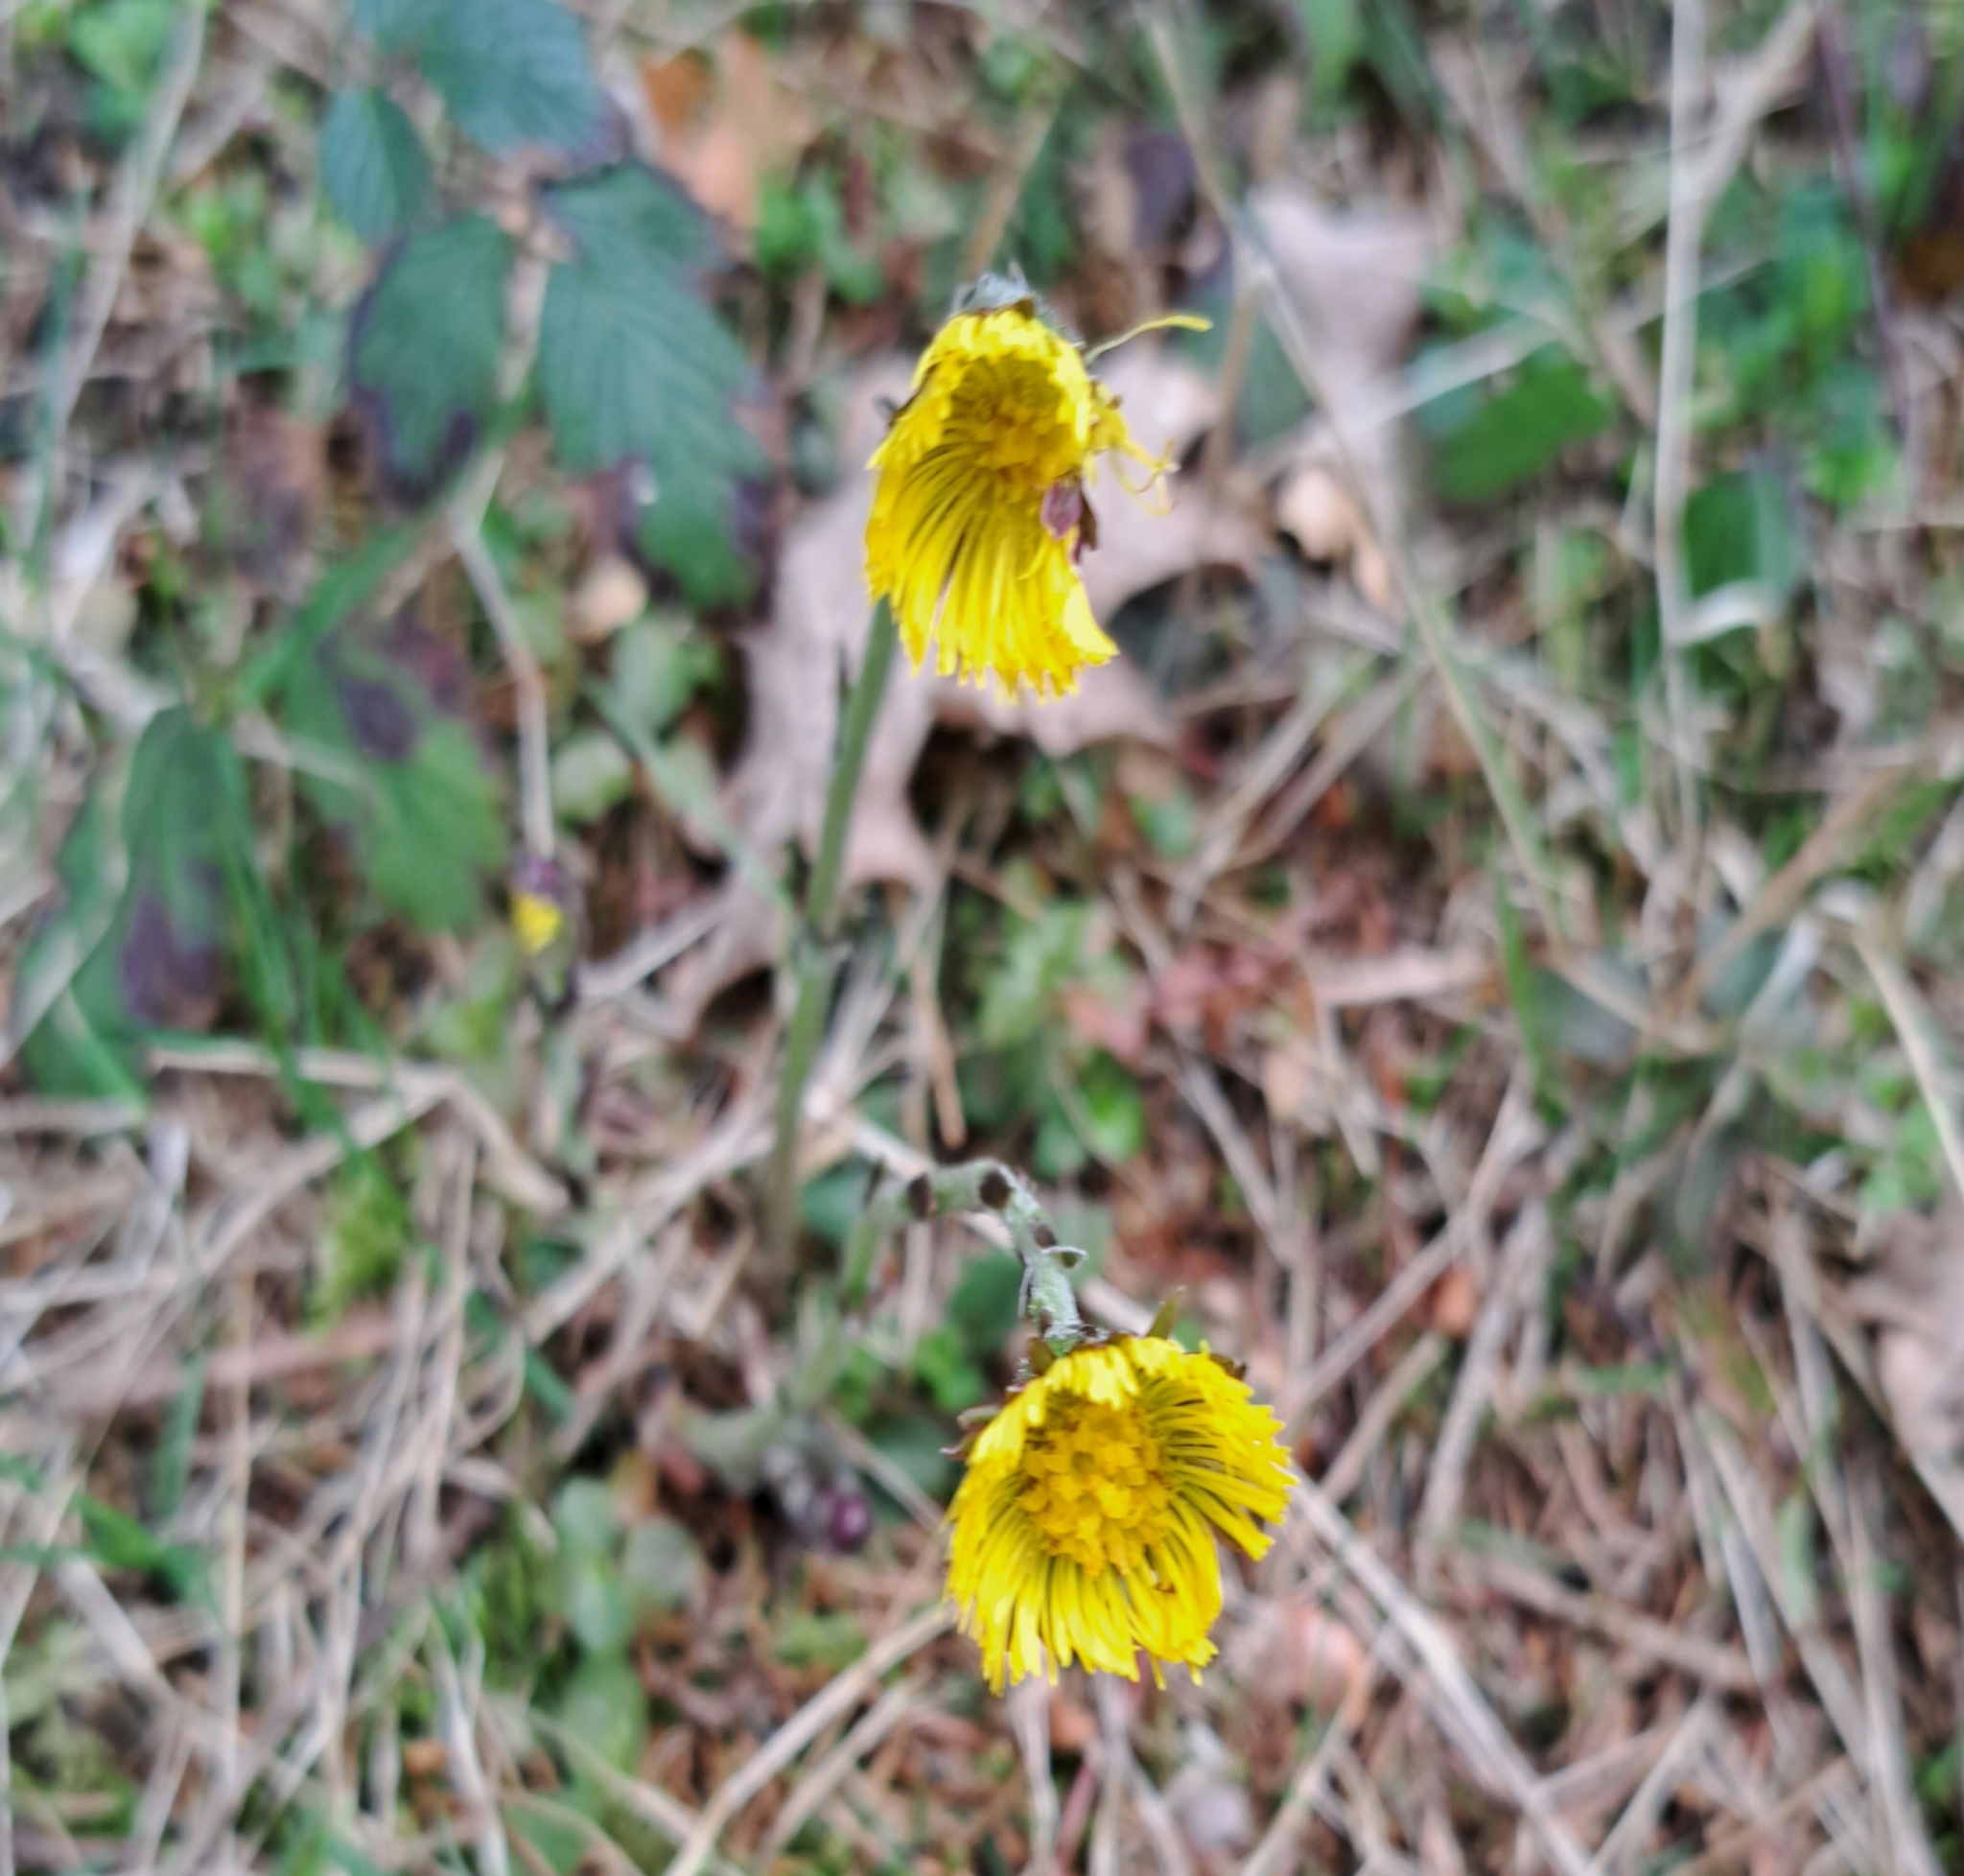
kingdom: Plantae
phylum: Tracheophyta
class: Magnoliopsida
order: Asterales
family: Asteraceae
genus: Tussilago
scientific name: Tussilago farfara
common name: Coltsfoot
